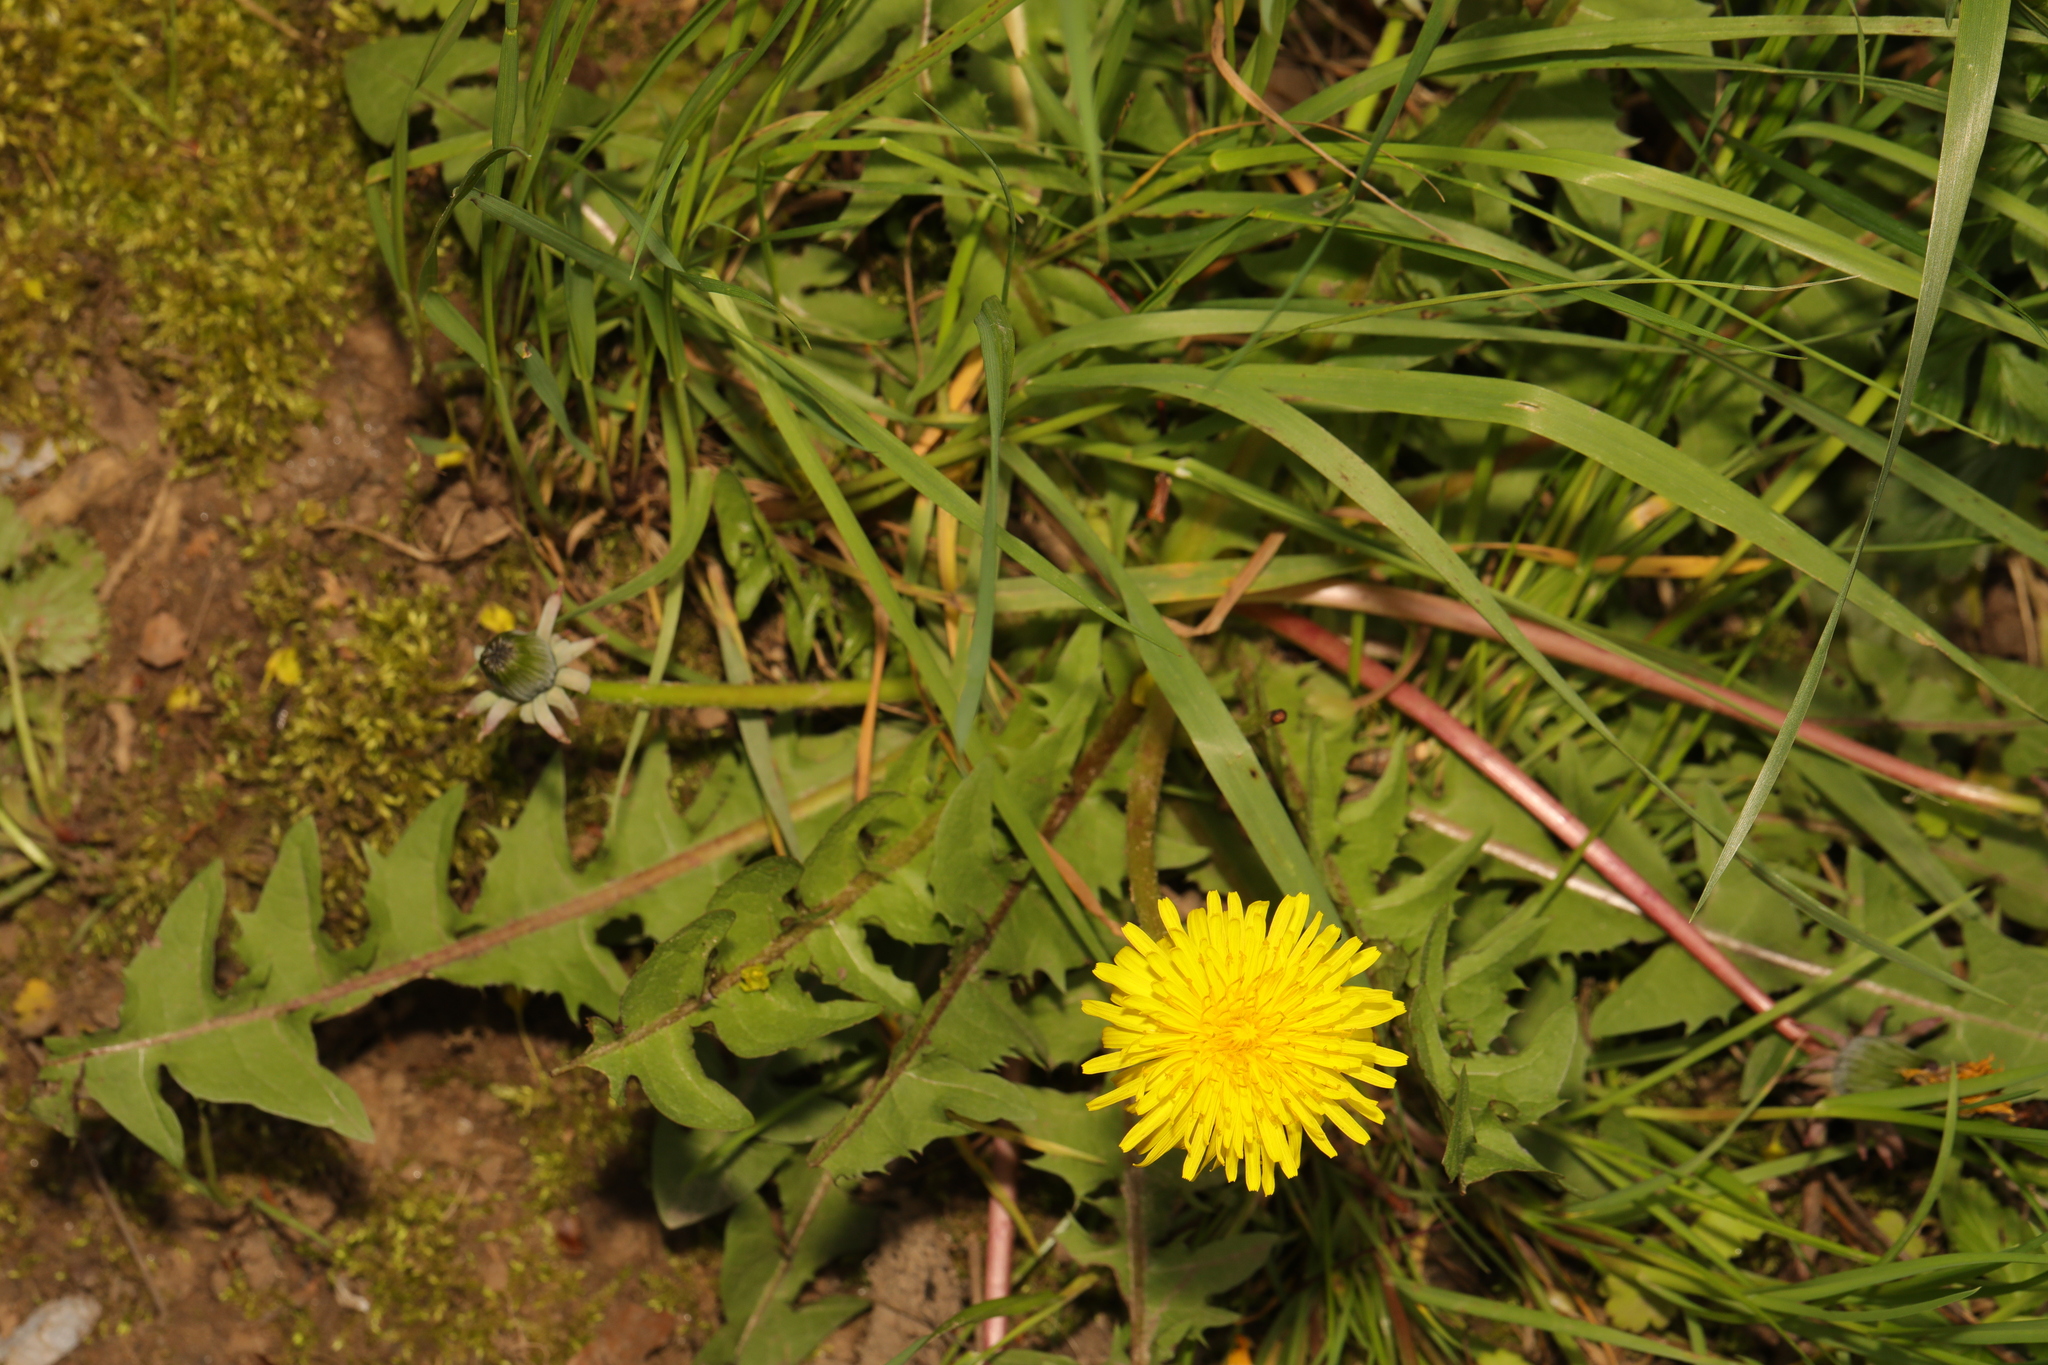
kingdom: Plantae
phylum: Tracheophyta
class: Magnoliopsida
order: Asterales
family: Asteraceae
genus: Taraxacum
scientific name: Taraxacum officinale
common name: Common dandelion
